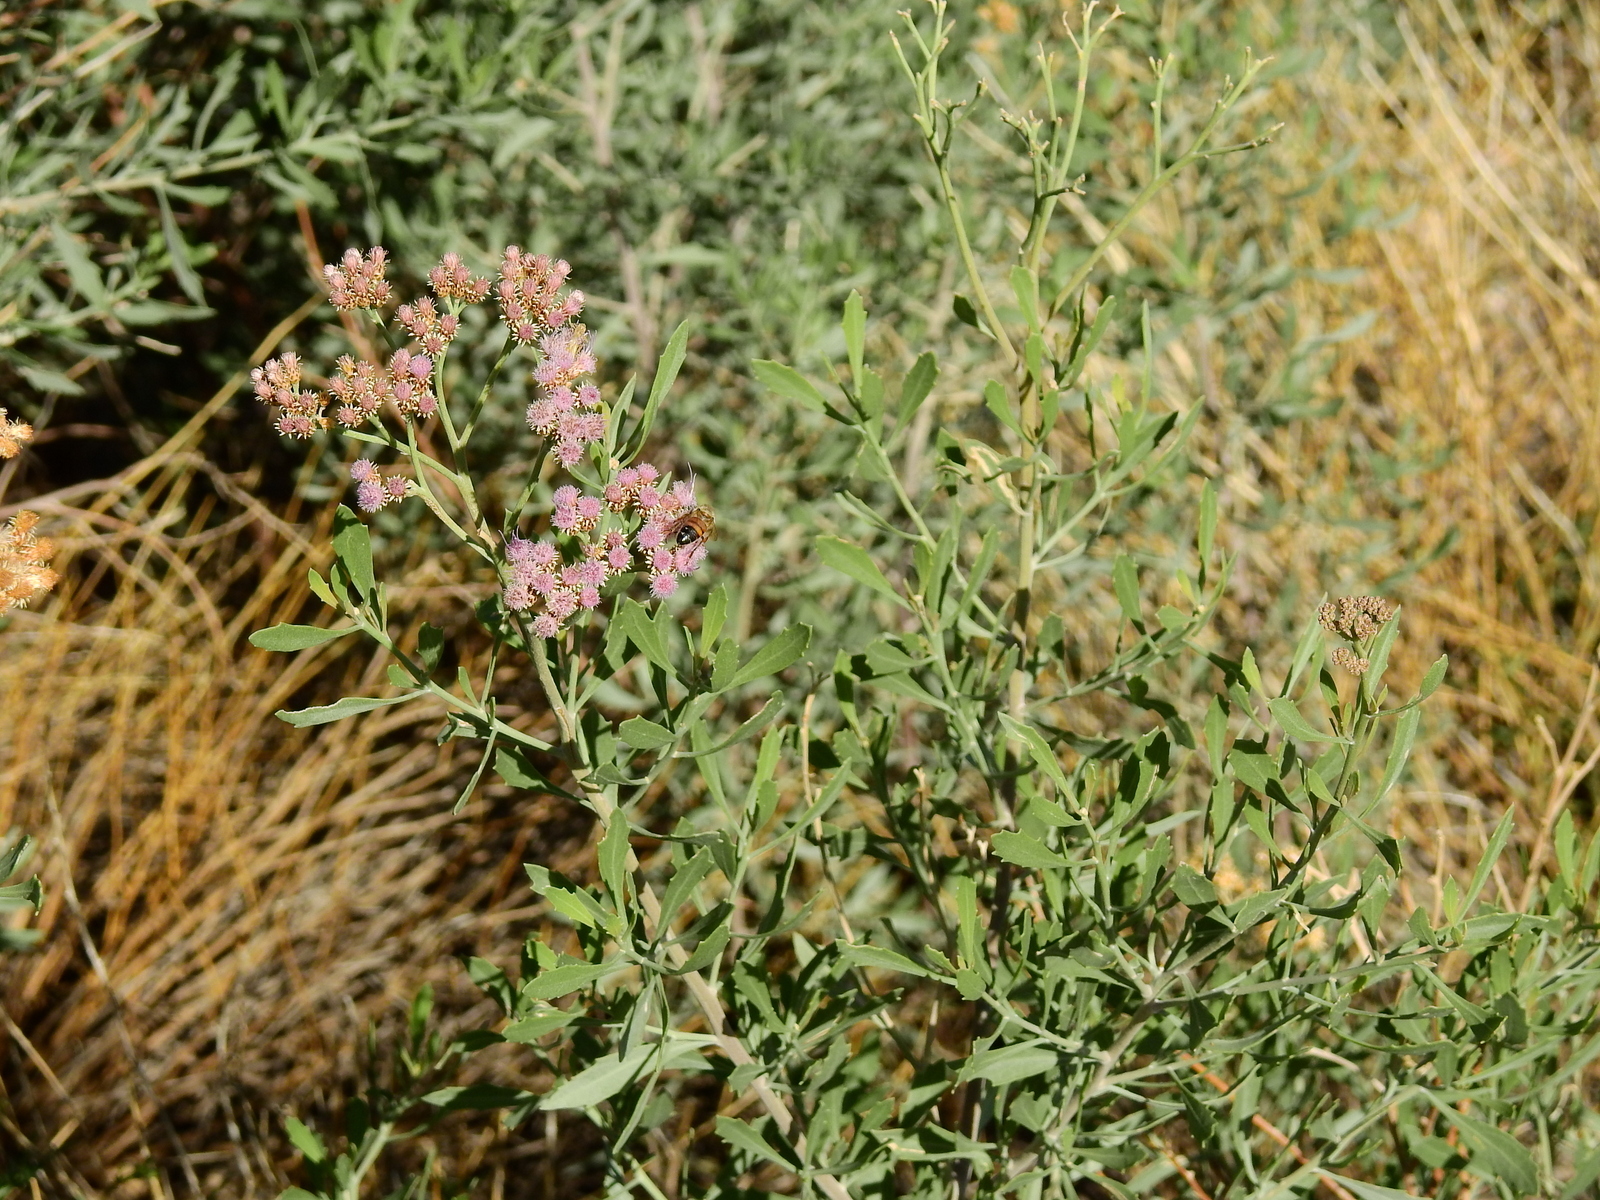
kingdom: Plantae
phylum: Tracheophyta
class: Magnoliopsida
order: Asterales
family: Asteraceae
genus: Tessaria
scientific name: Tessaria absinthioides
